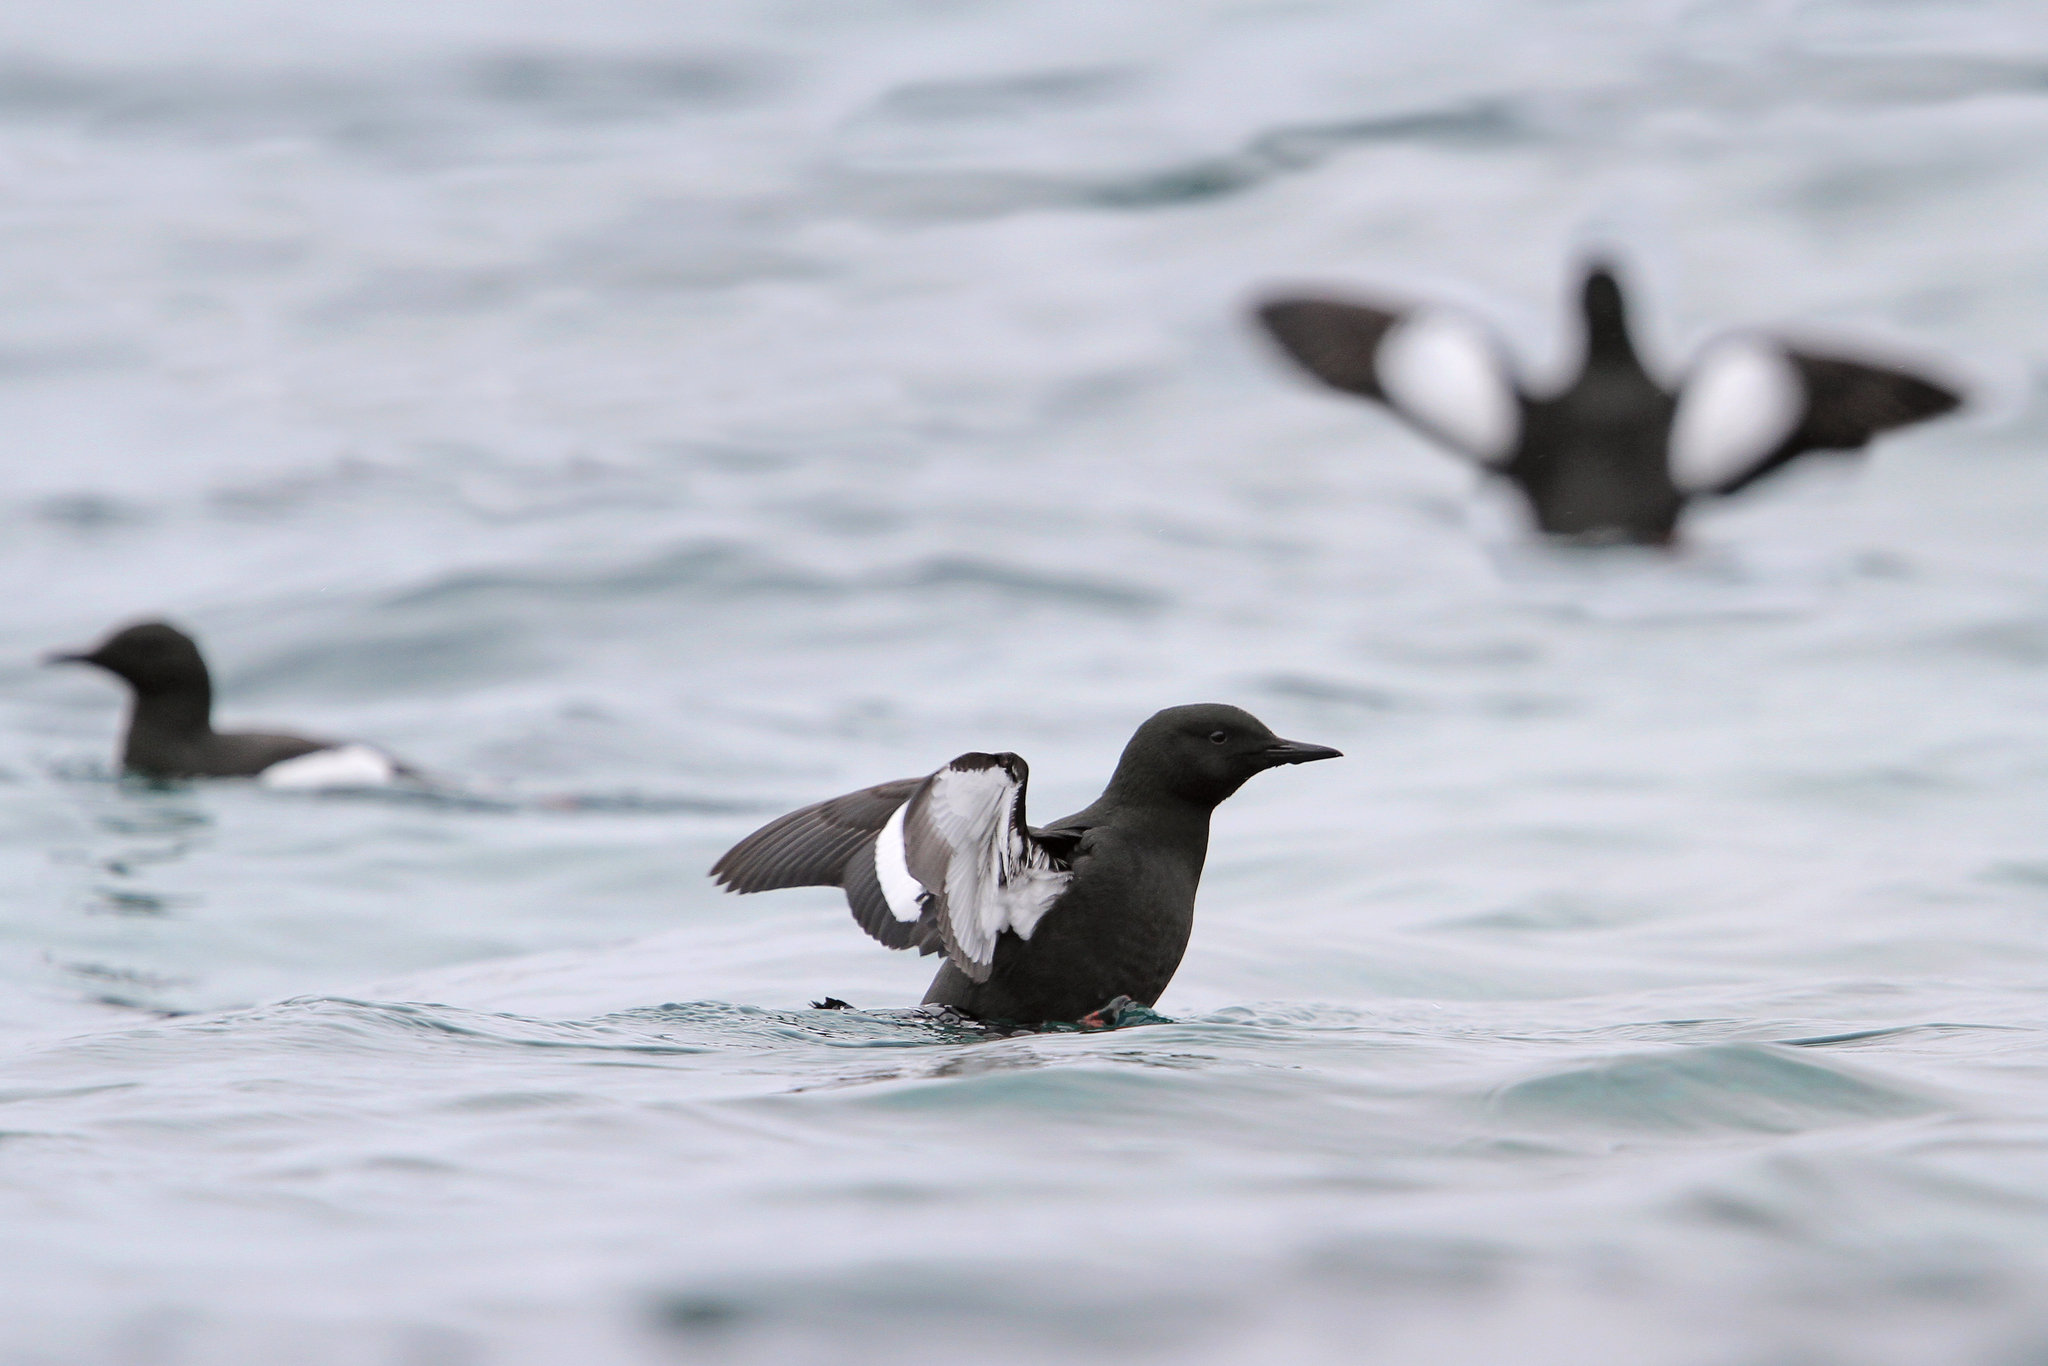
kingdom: Animalia
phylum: Chordata
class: Aves
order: Charadriiformes
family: Alcidae
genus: Cepphus
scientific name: Cepphus grylle
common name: Black guillemot
